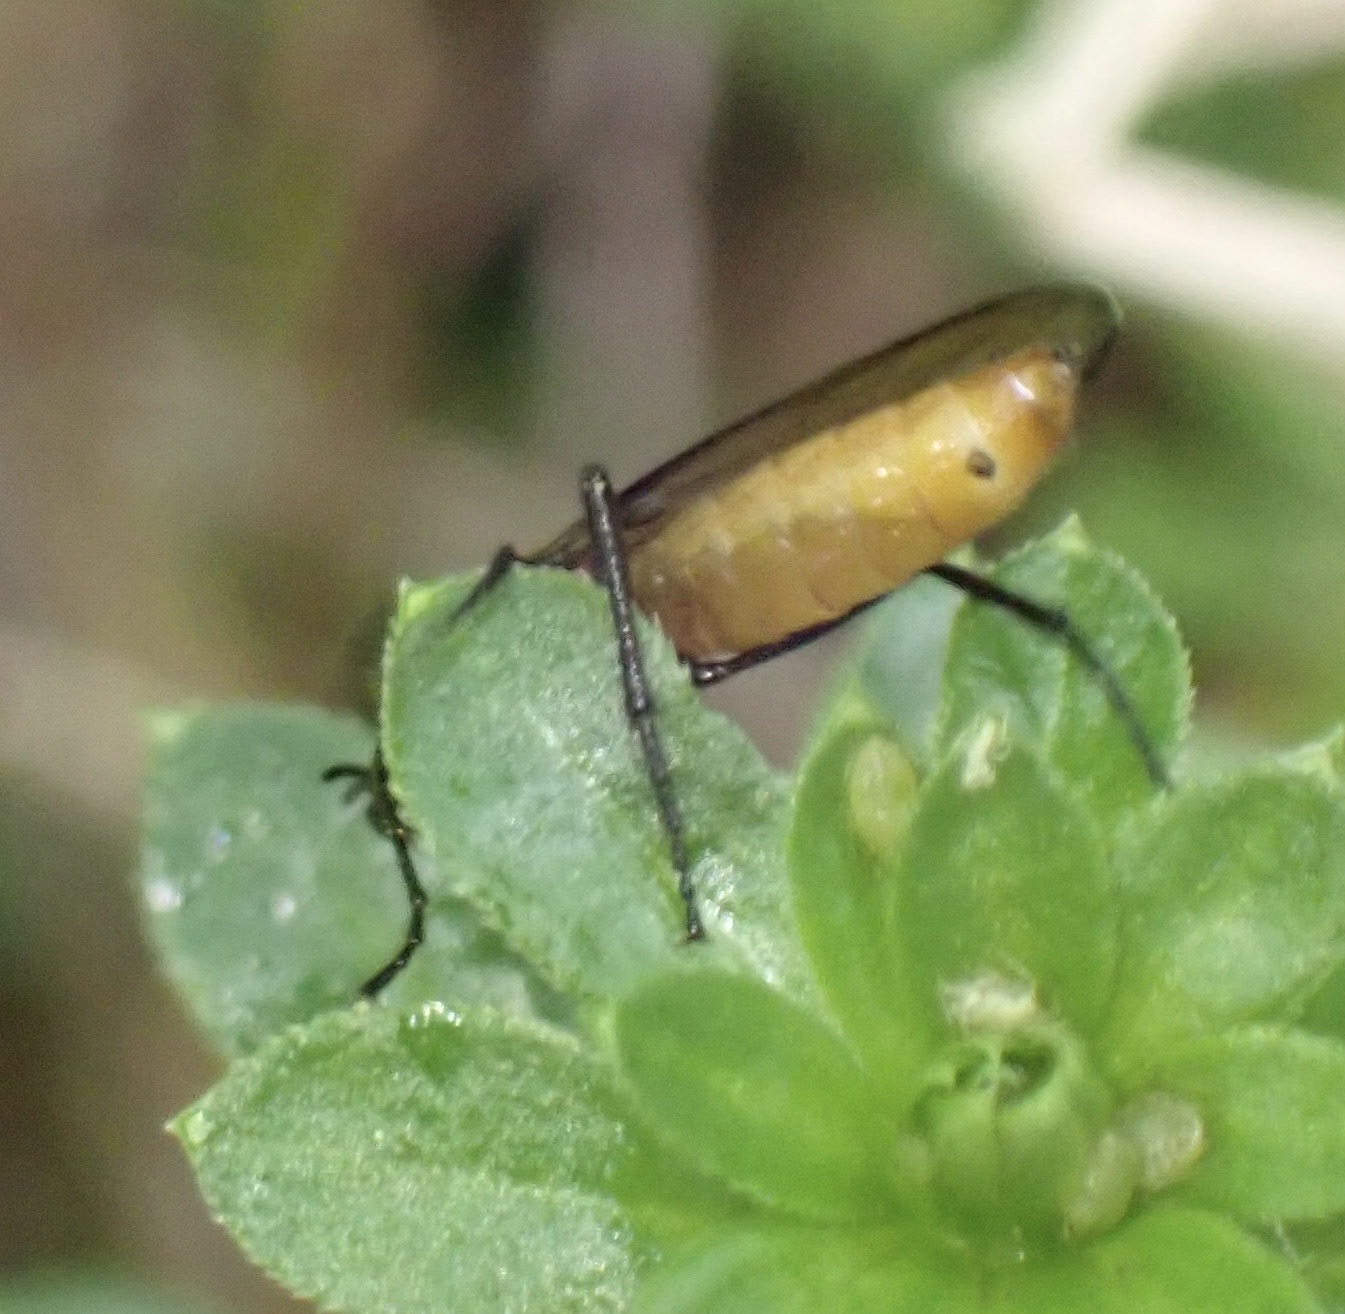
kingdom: Animalia
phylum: Arthropoda
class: Insecta
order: Diptera
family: Bibionidae
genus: Bibio
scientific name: Bibio hortulanus
